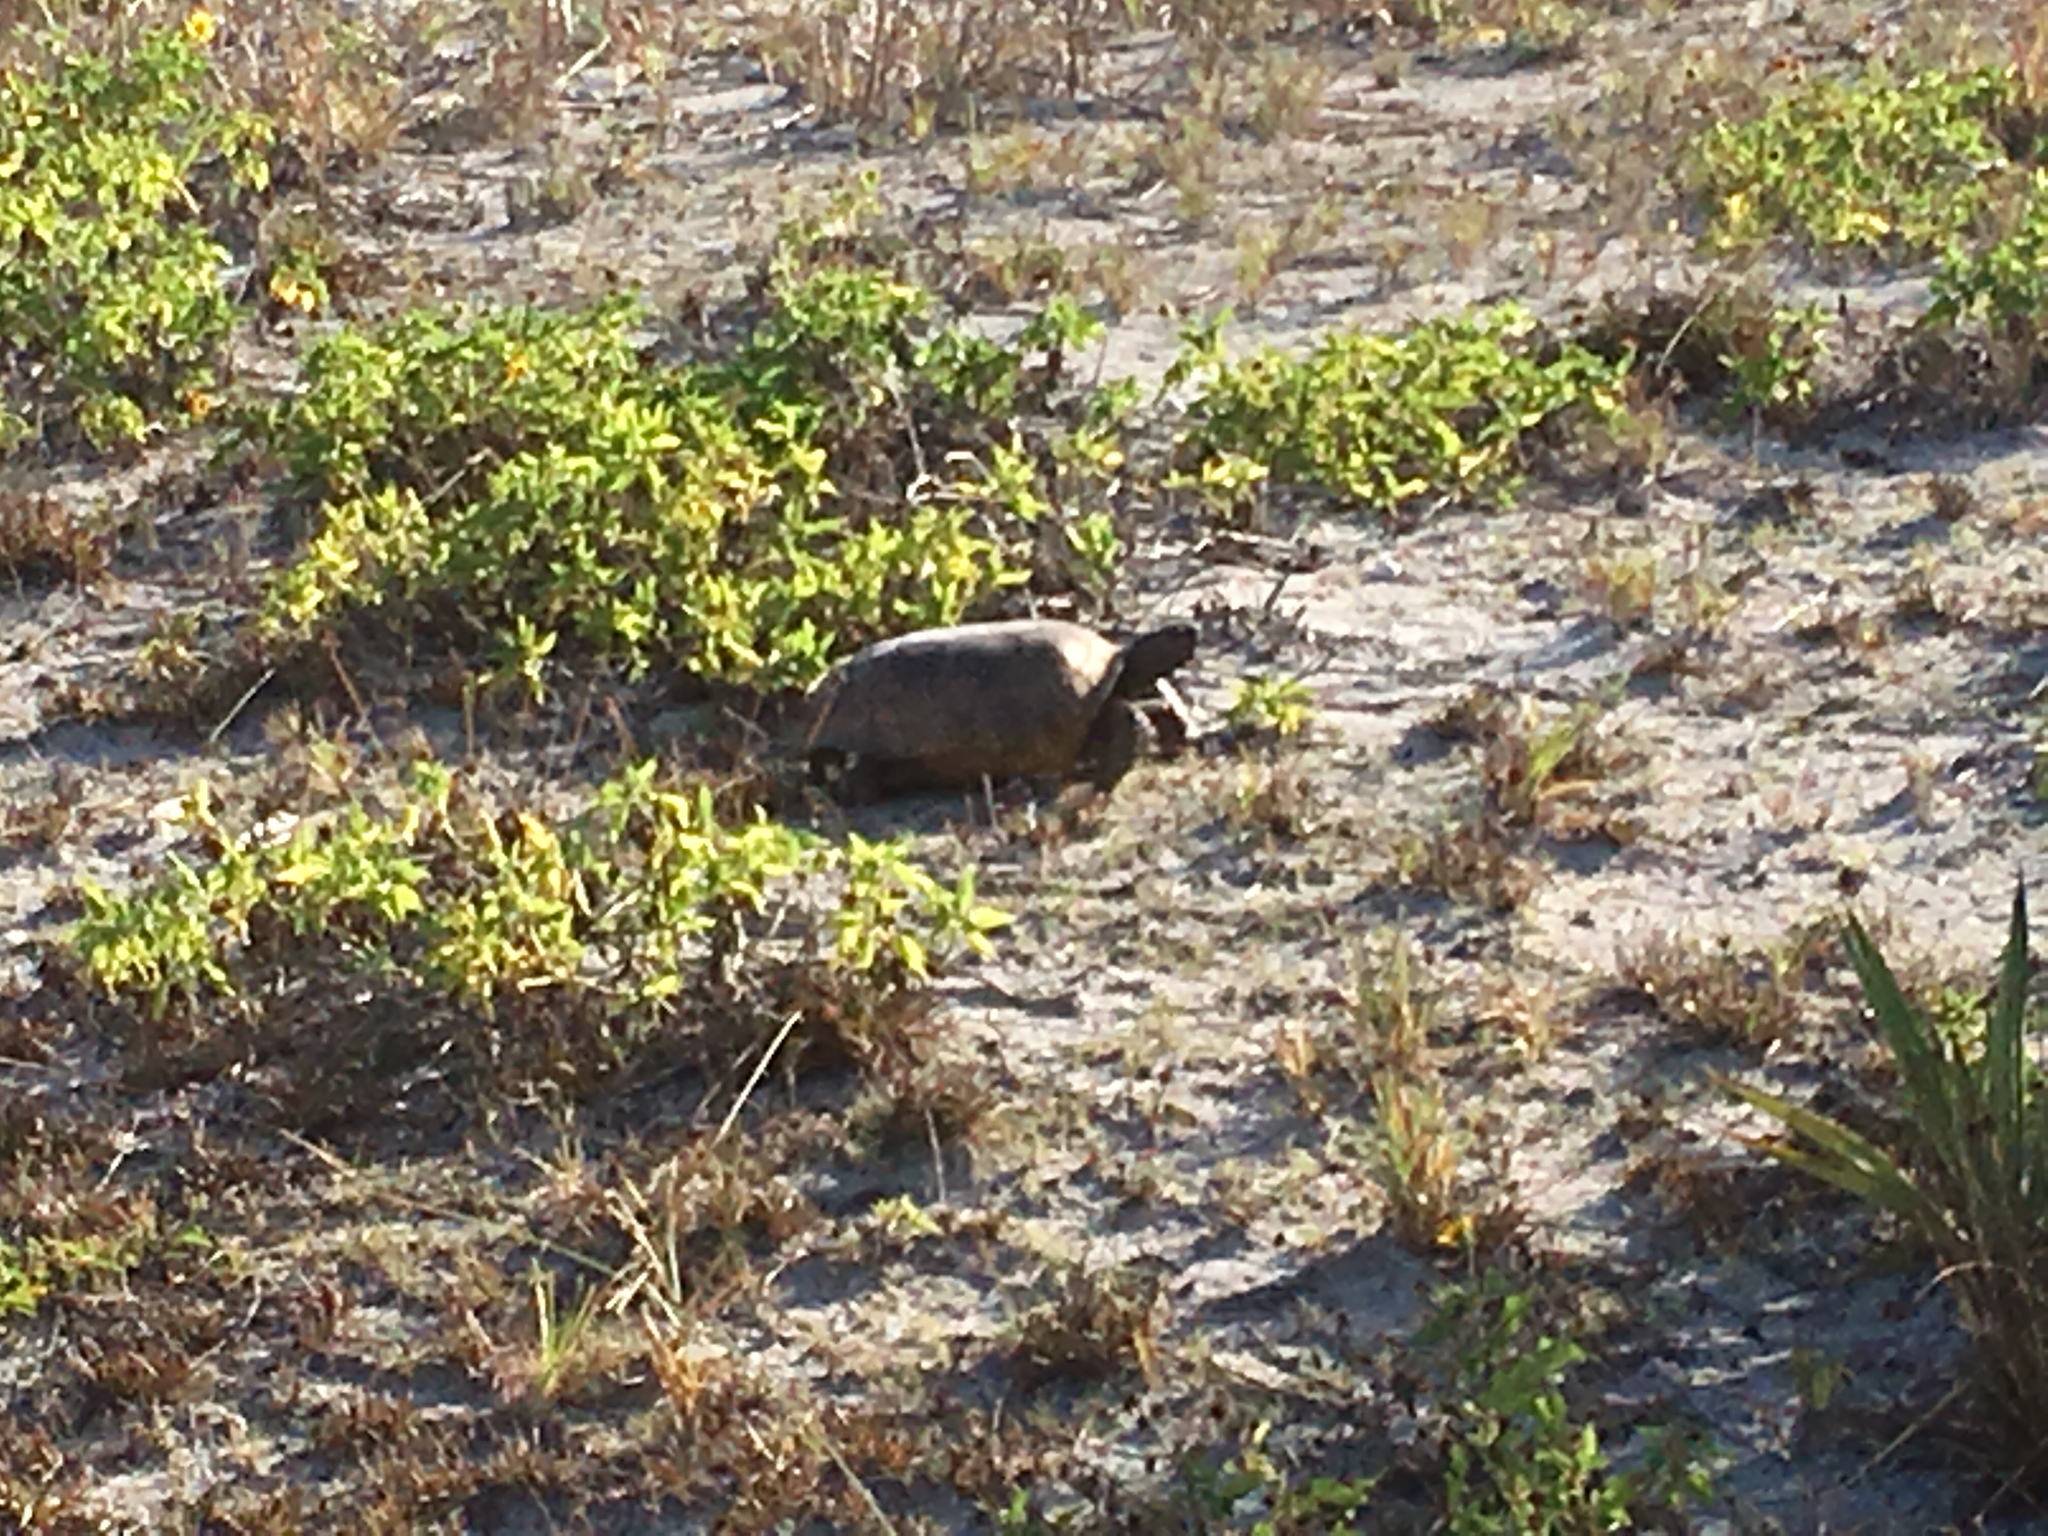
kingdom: Animalia
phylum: Chordata
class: Testudines
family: Testudinidae
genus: Gopherus
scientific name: Gopherus polyphemus
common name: Florida gopher tortoise
